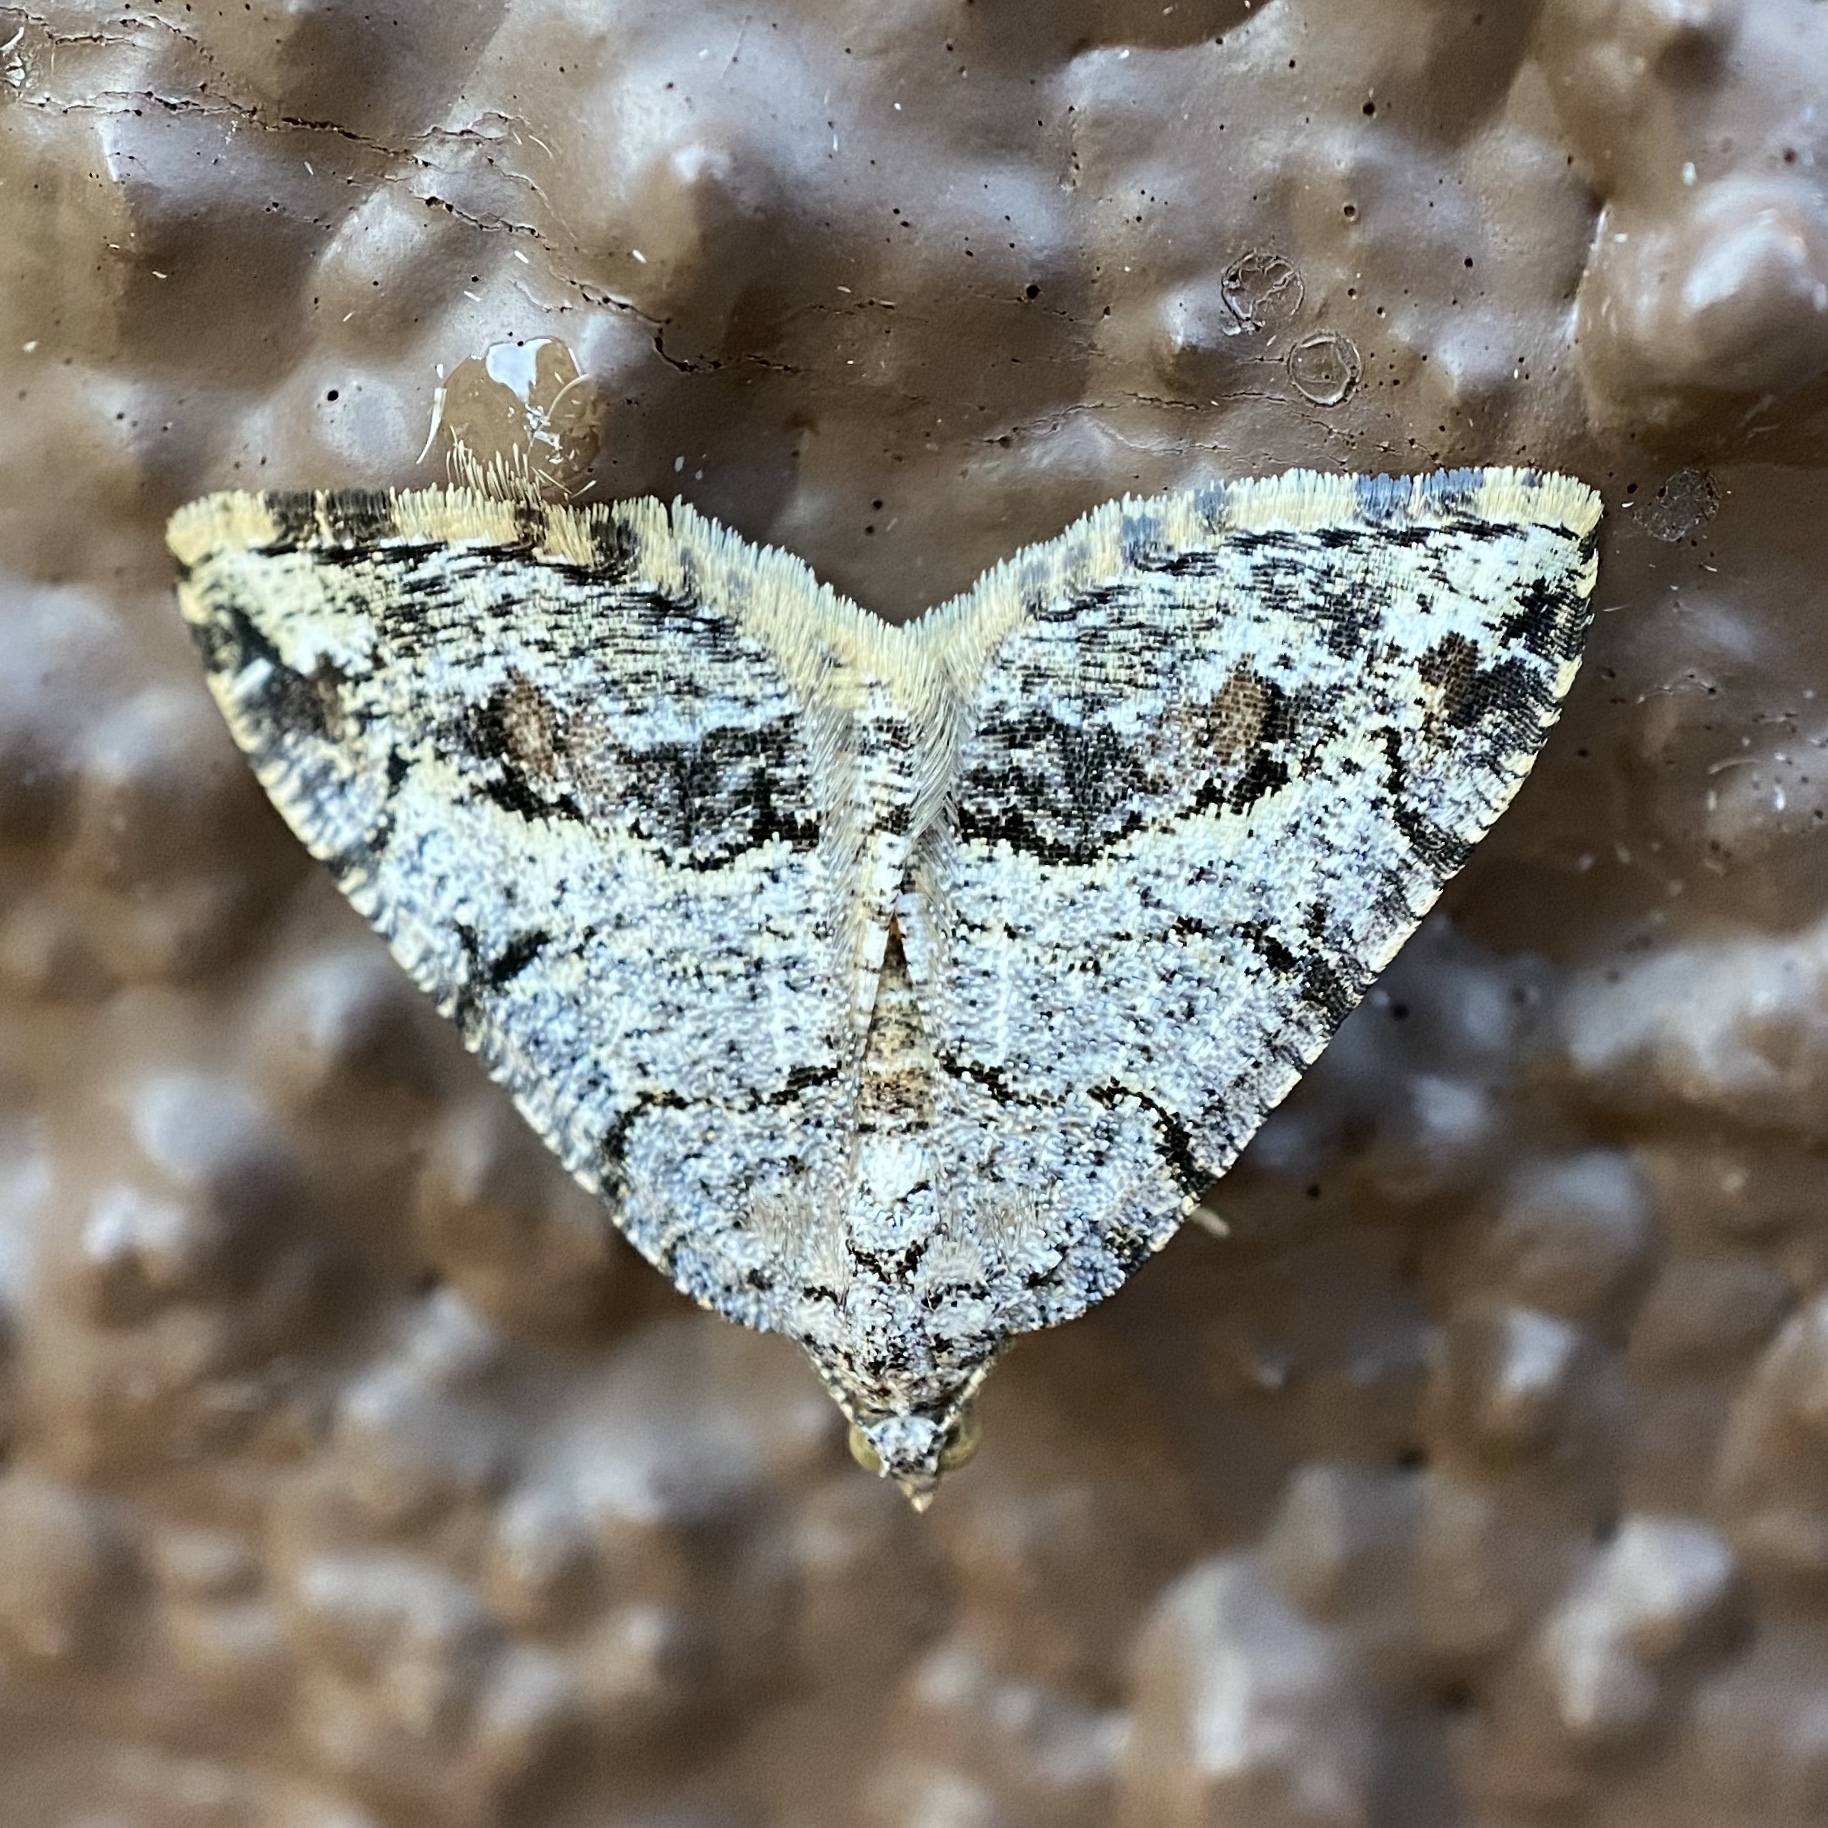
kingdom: Animalia
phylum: Arthropoda
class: Insecta
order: Lepidoptera
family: Geometridae
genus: Macaria
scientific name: Macaria deceptrix
